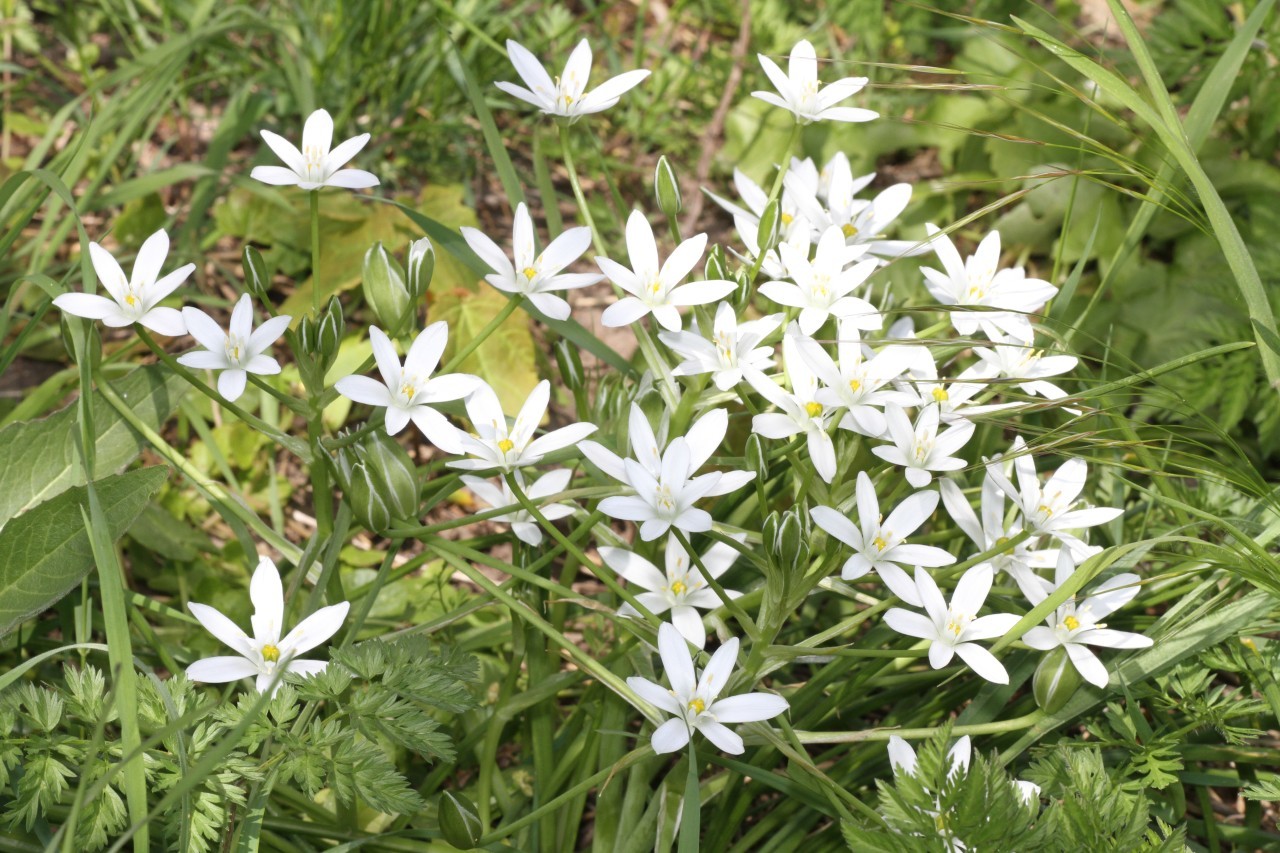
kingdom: Plantae
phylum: Tracheophyta
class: Liliopsida
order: Asparagales
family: Asparagaceae
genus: Ornithogalum
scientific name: Ornithogalum umbellatum
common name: Garden star-of-bethlehem
